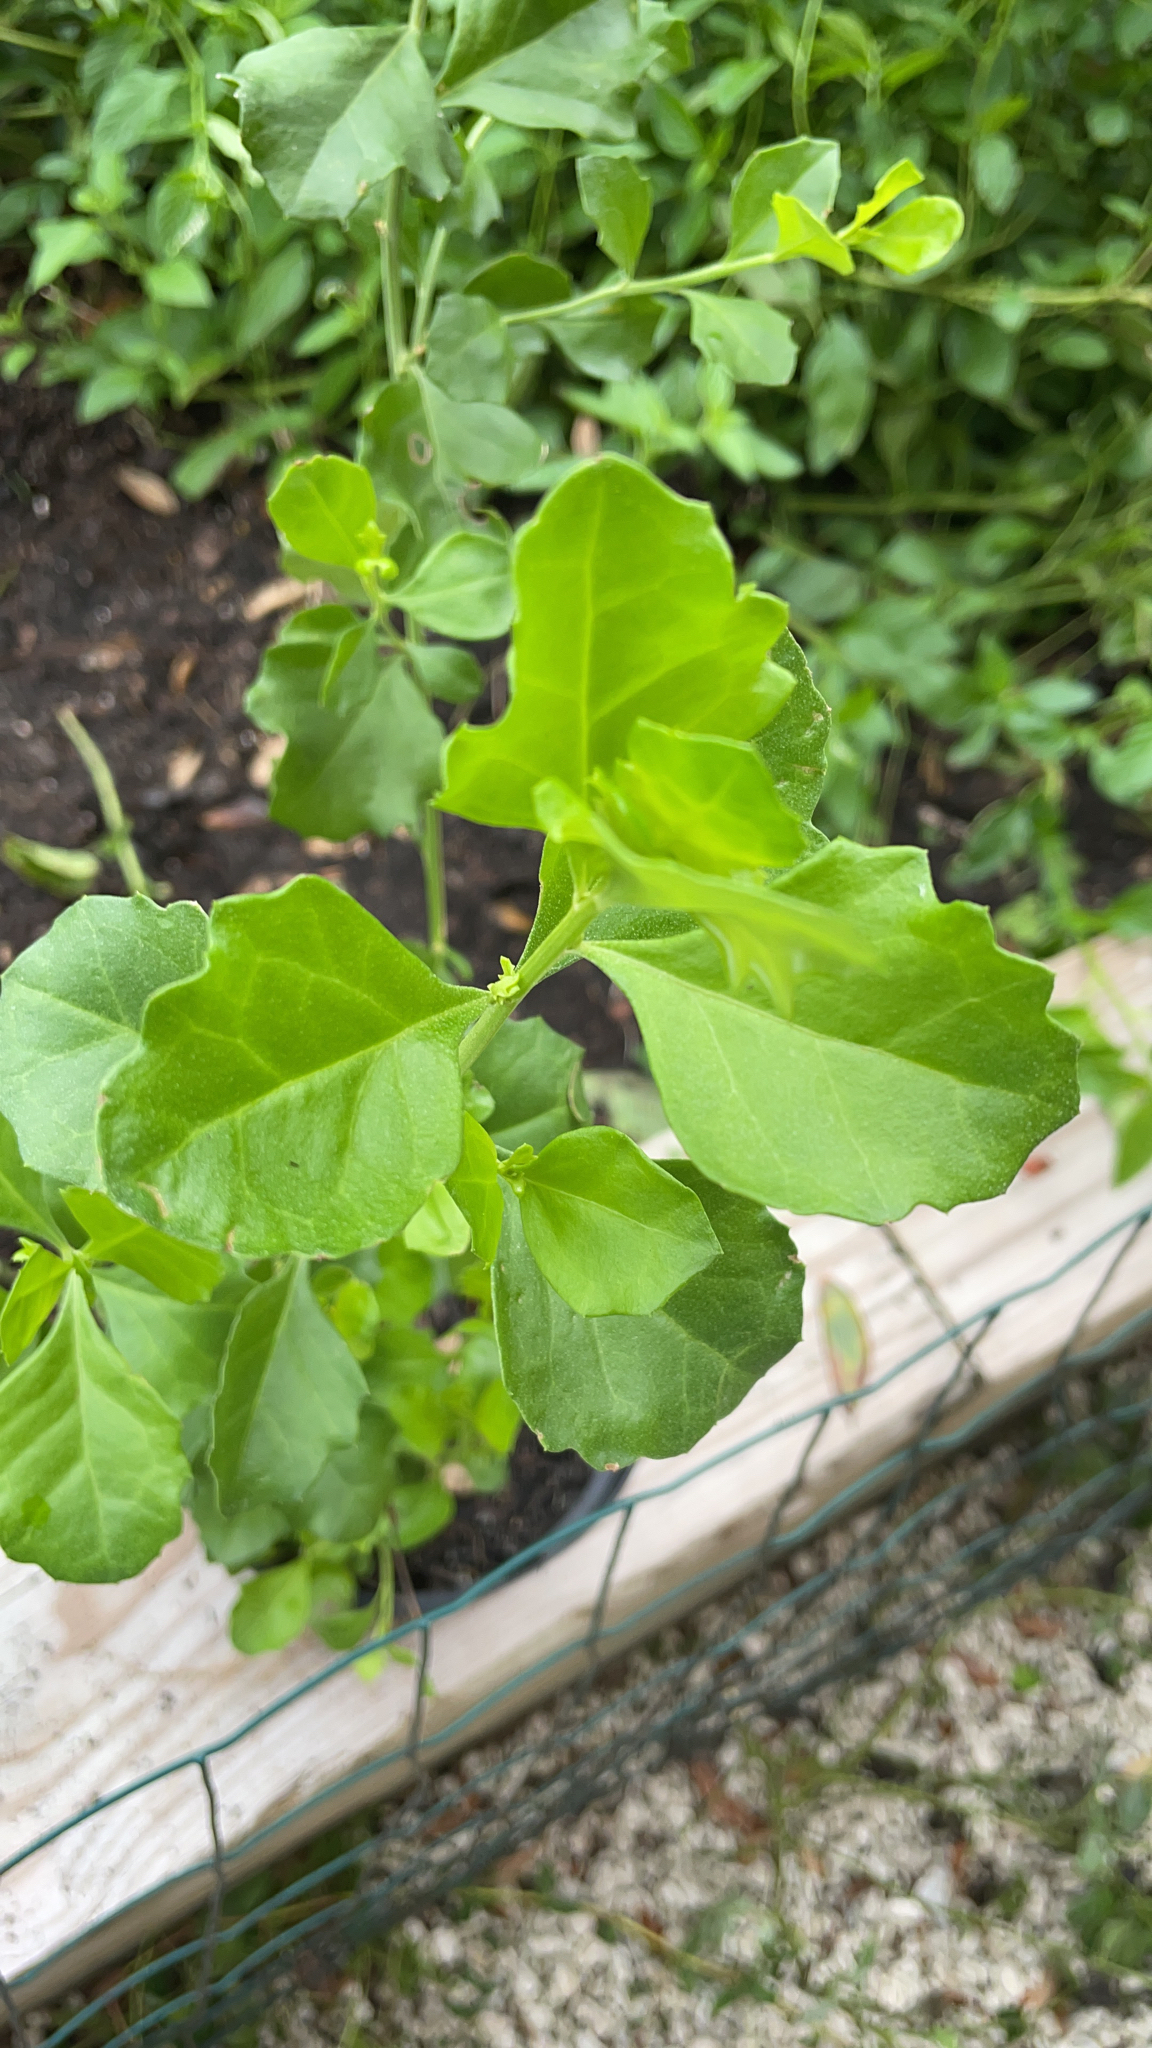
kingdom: Plantae
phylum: Tracheophyta
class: Magnoliopsida
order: Asterales
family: Asteraceae
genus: Baccharis
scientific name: Baccharis halimifolia
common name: Eastern baccharis
